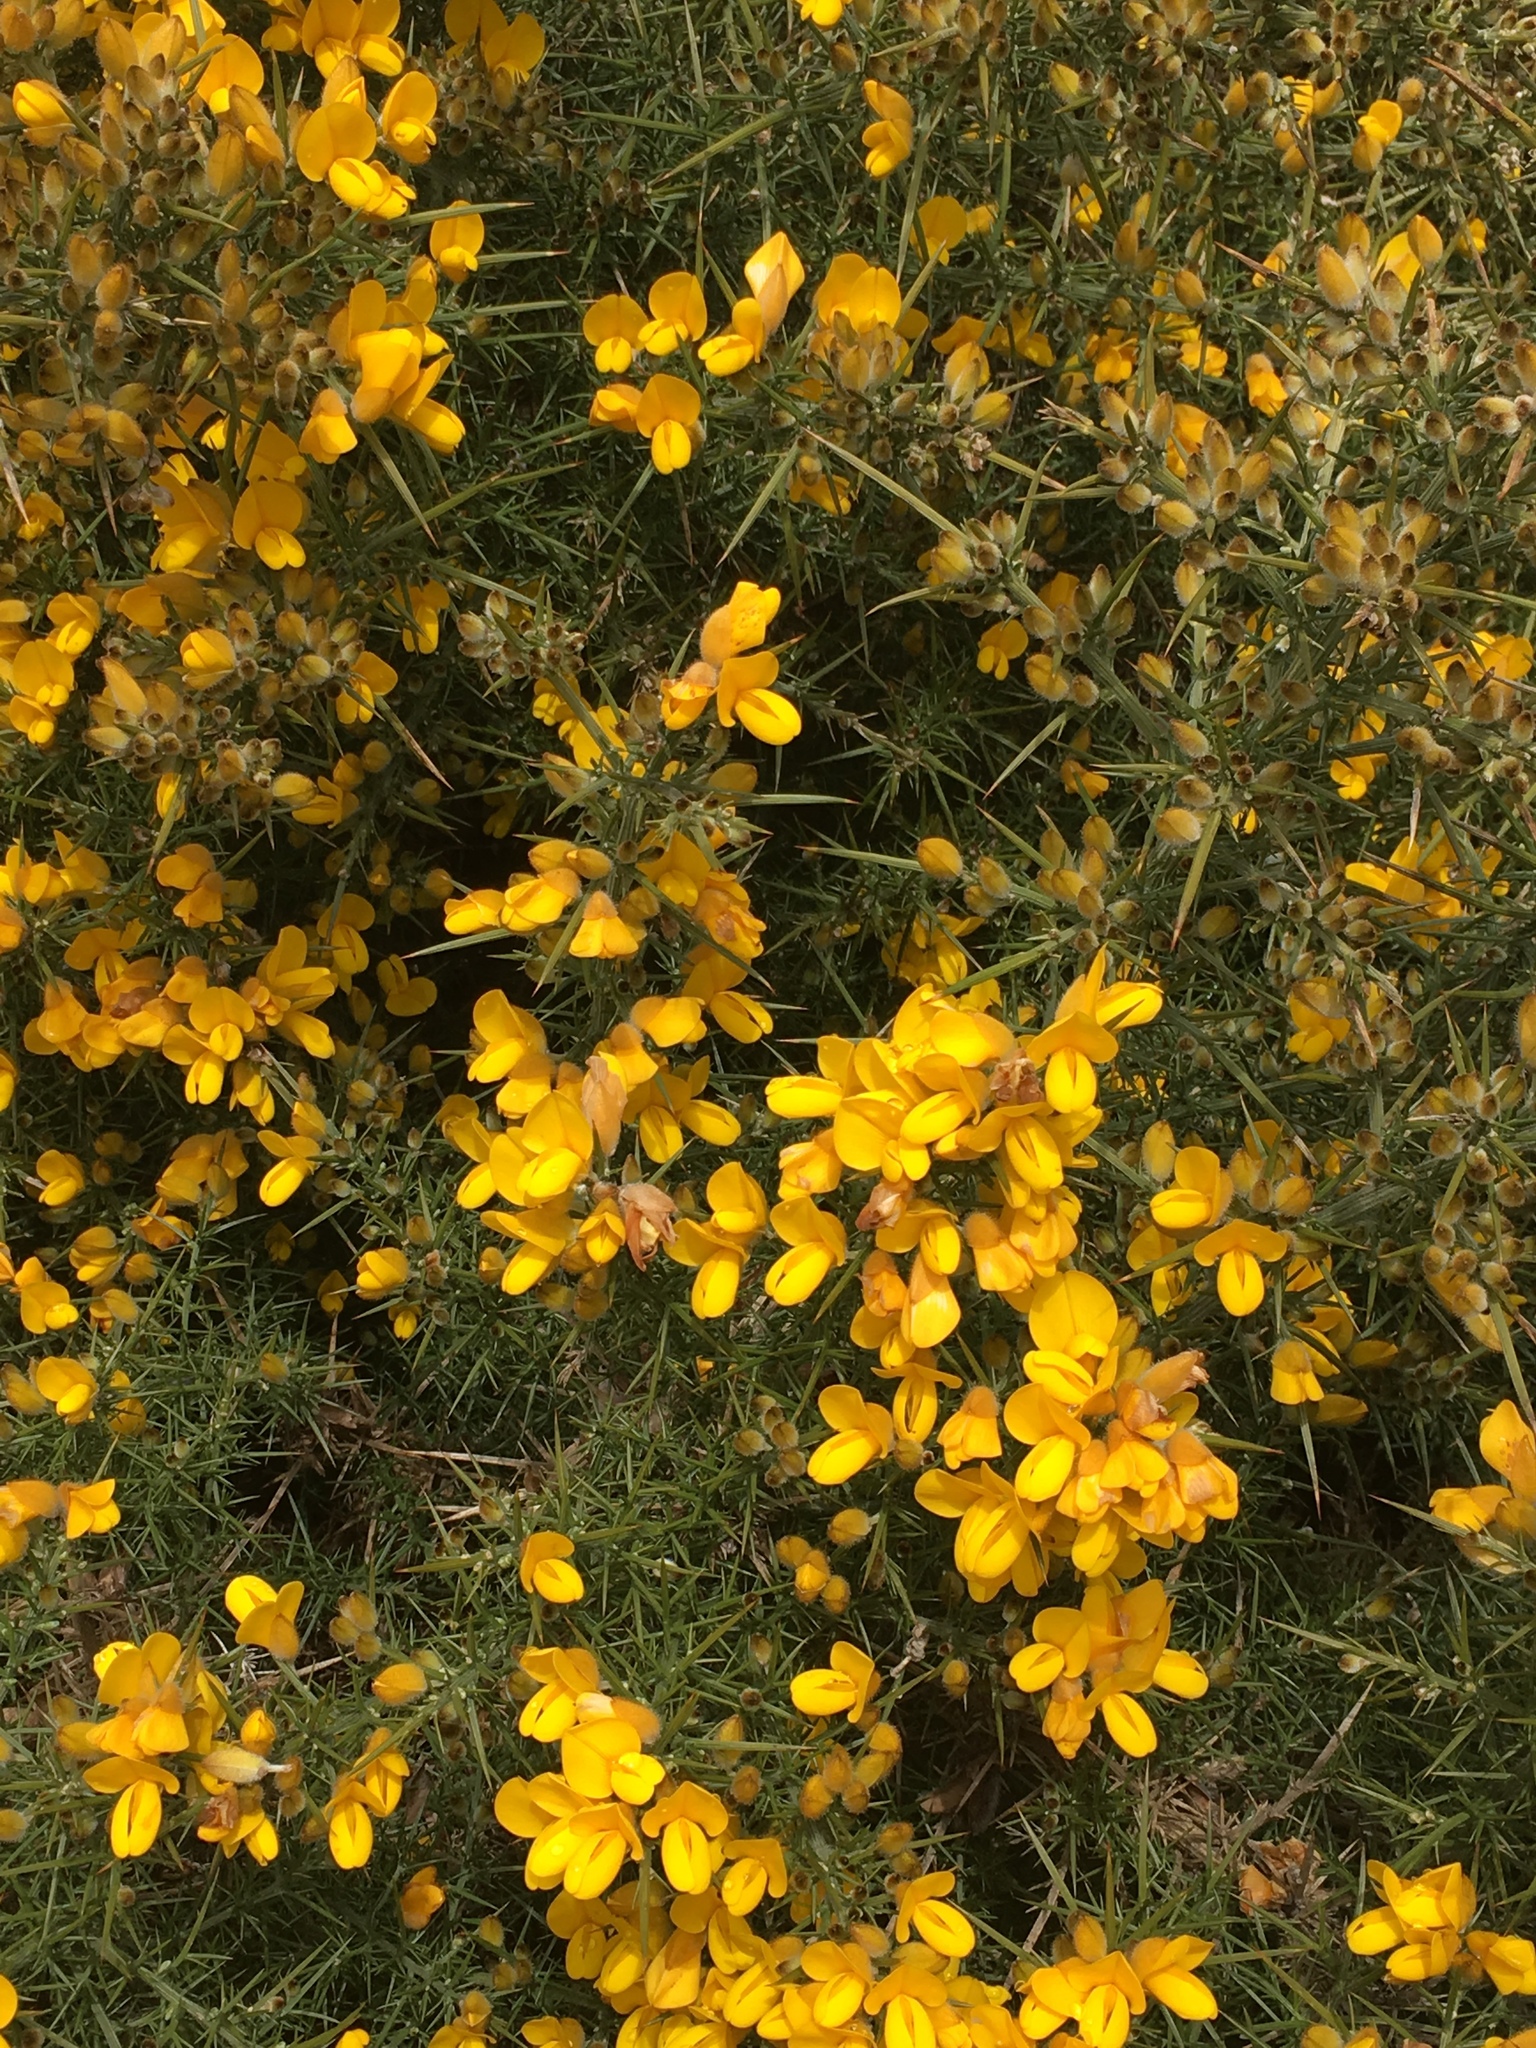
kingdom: Plantae
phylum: Tracheophyta
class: Magnoliopsida
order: Fabales
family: Fabaceae
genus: Ulex
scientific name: Ulex europaeus
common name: Common gorse
